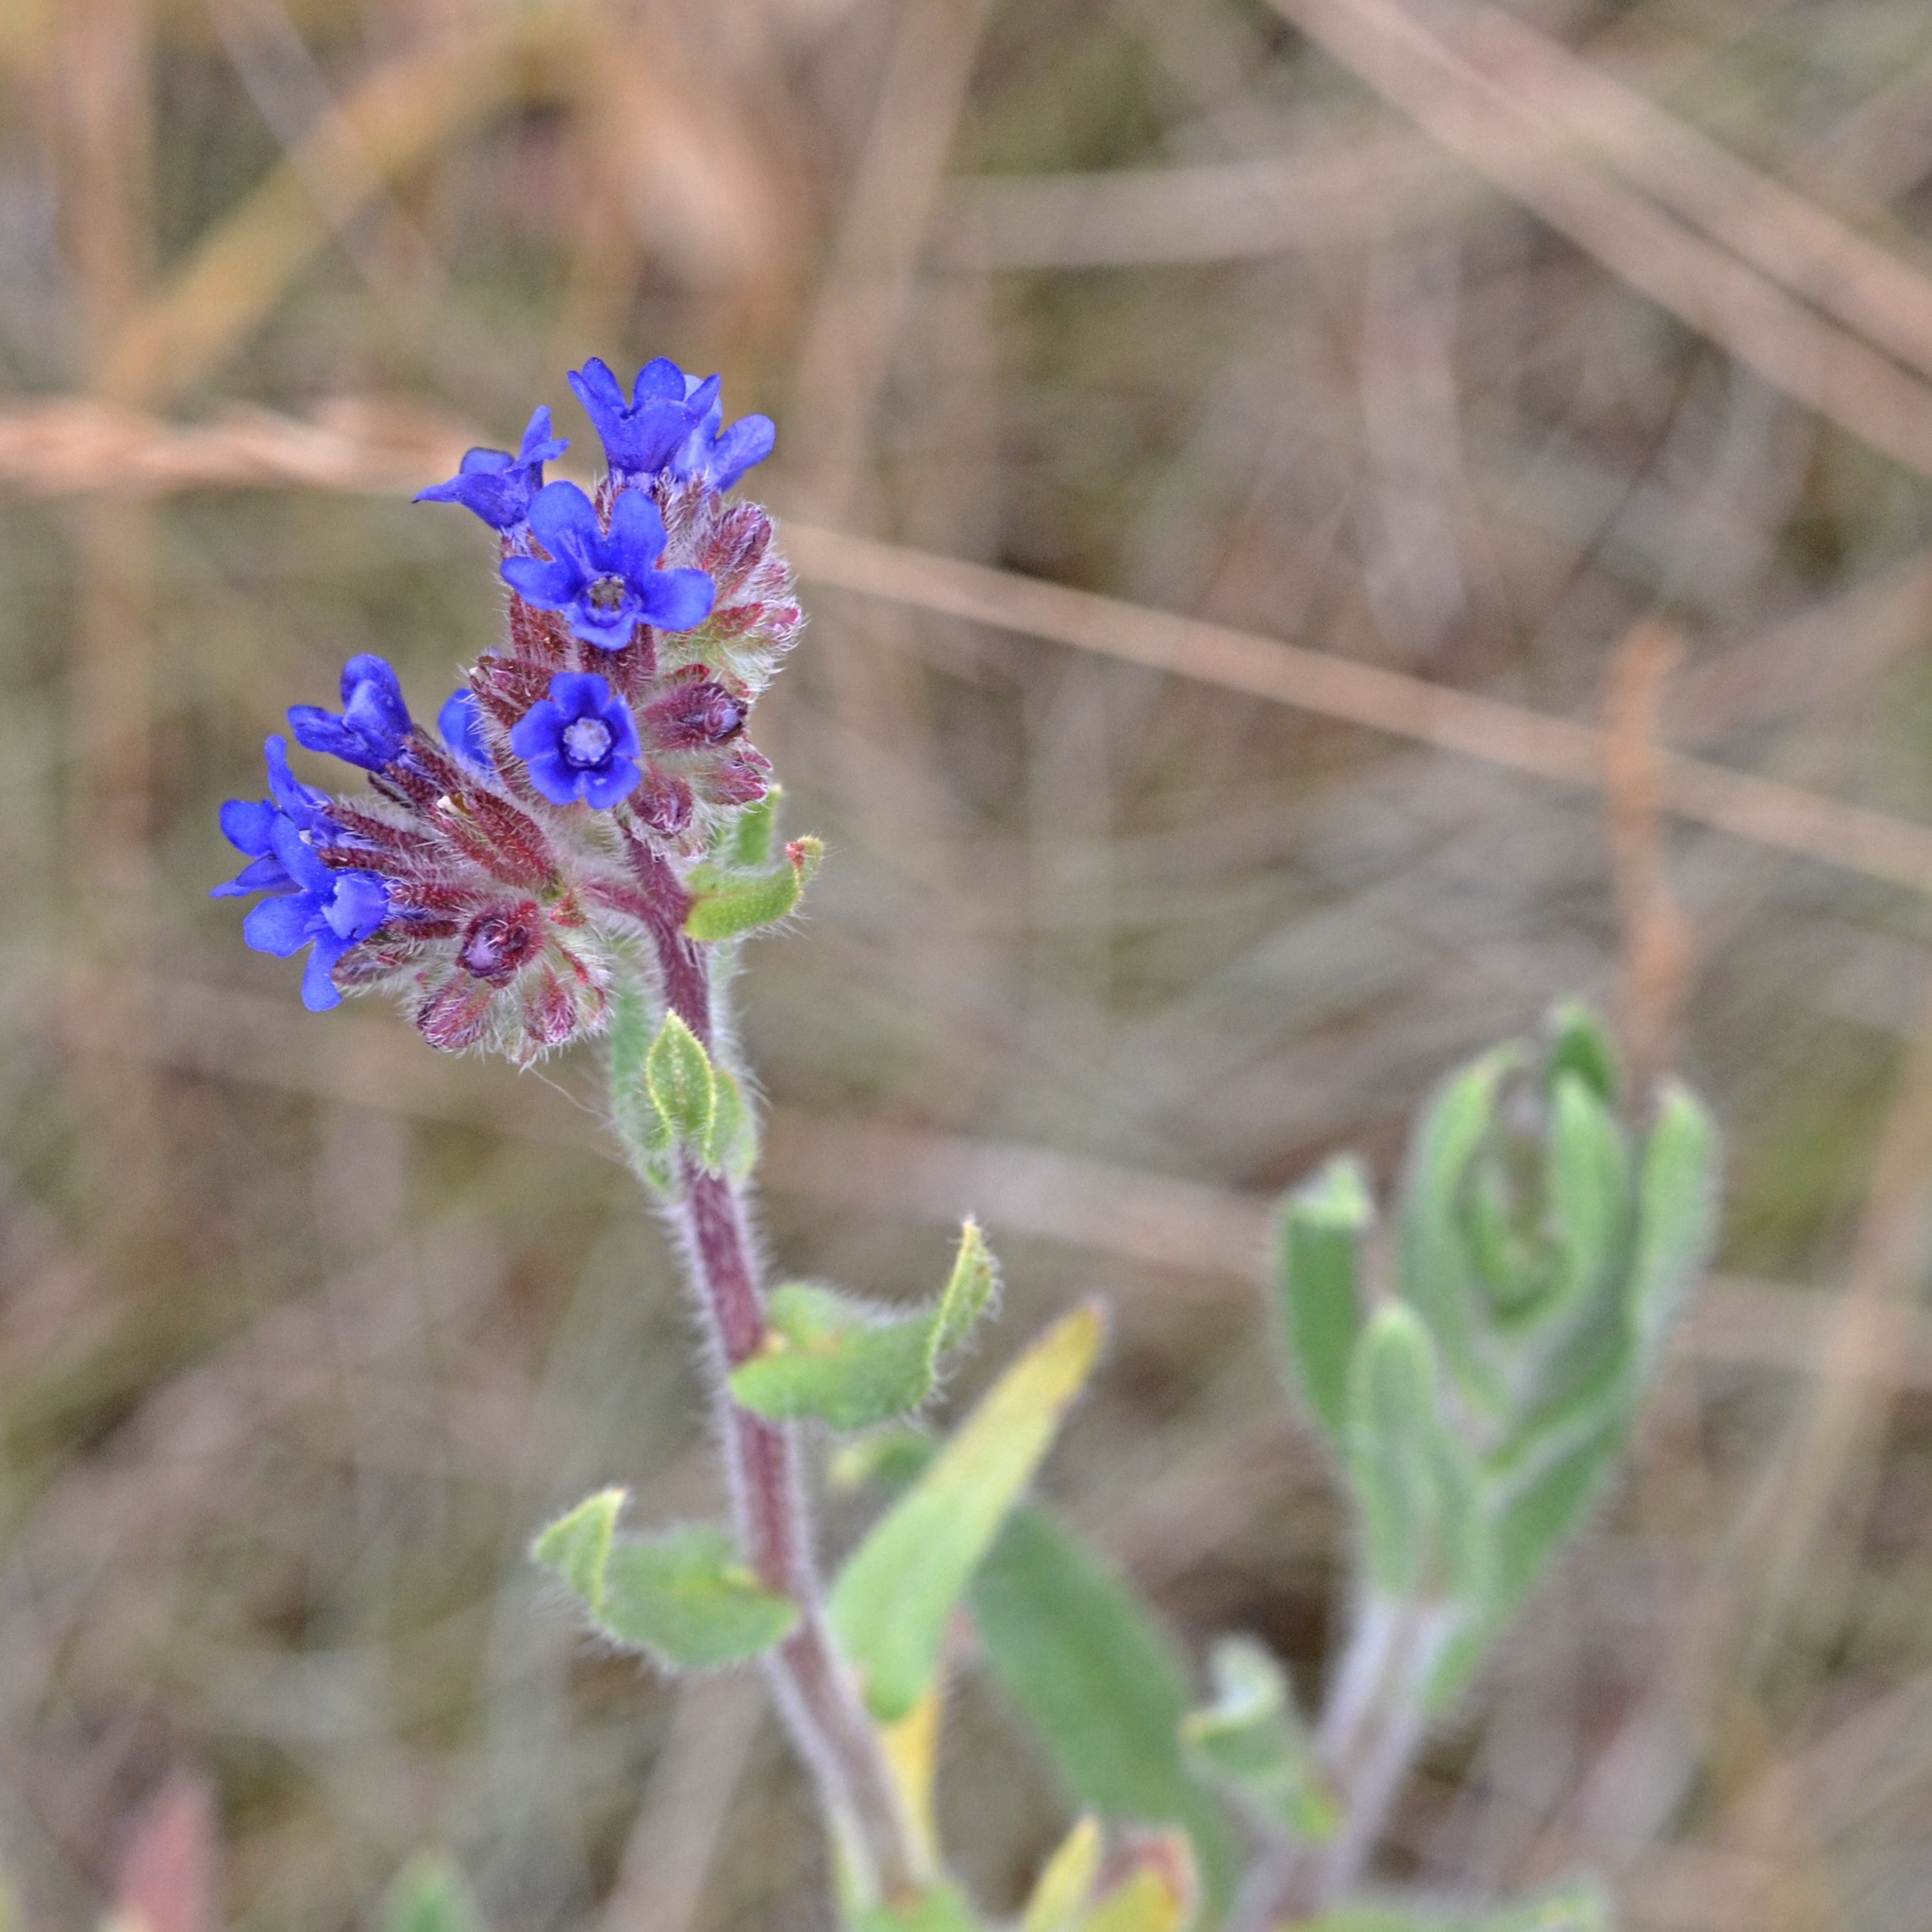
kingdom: Plantae
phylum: Tracheophyta
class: Magnoliopsida
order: Boraginales
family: Boraginaceae
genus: Anchusa
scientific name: Anchusa officinalis
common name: Alkanet
